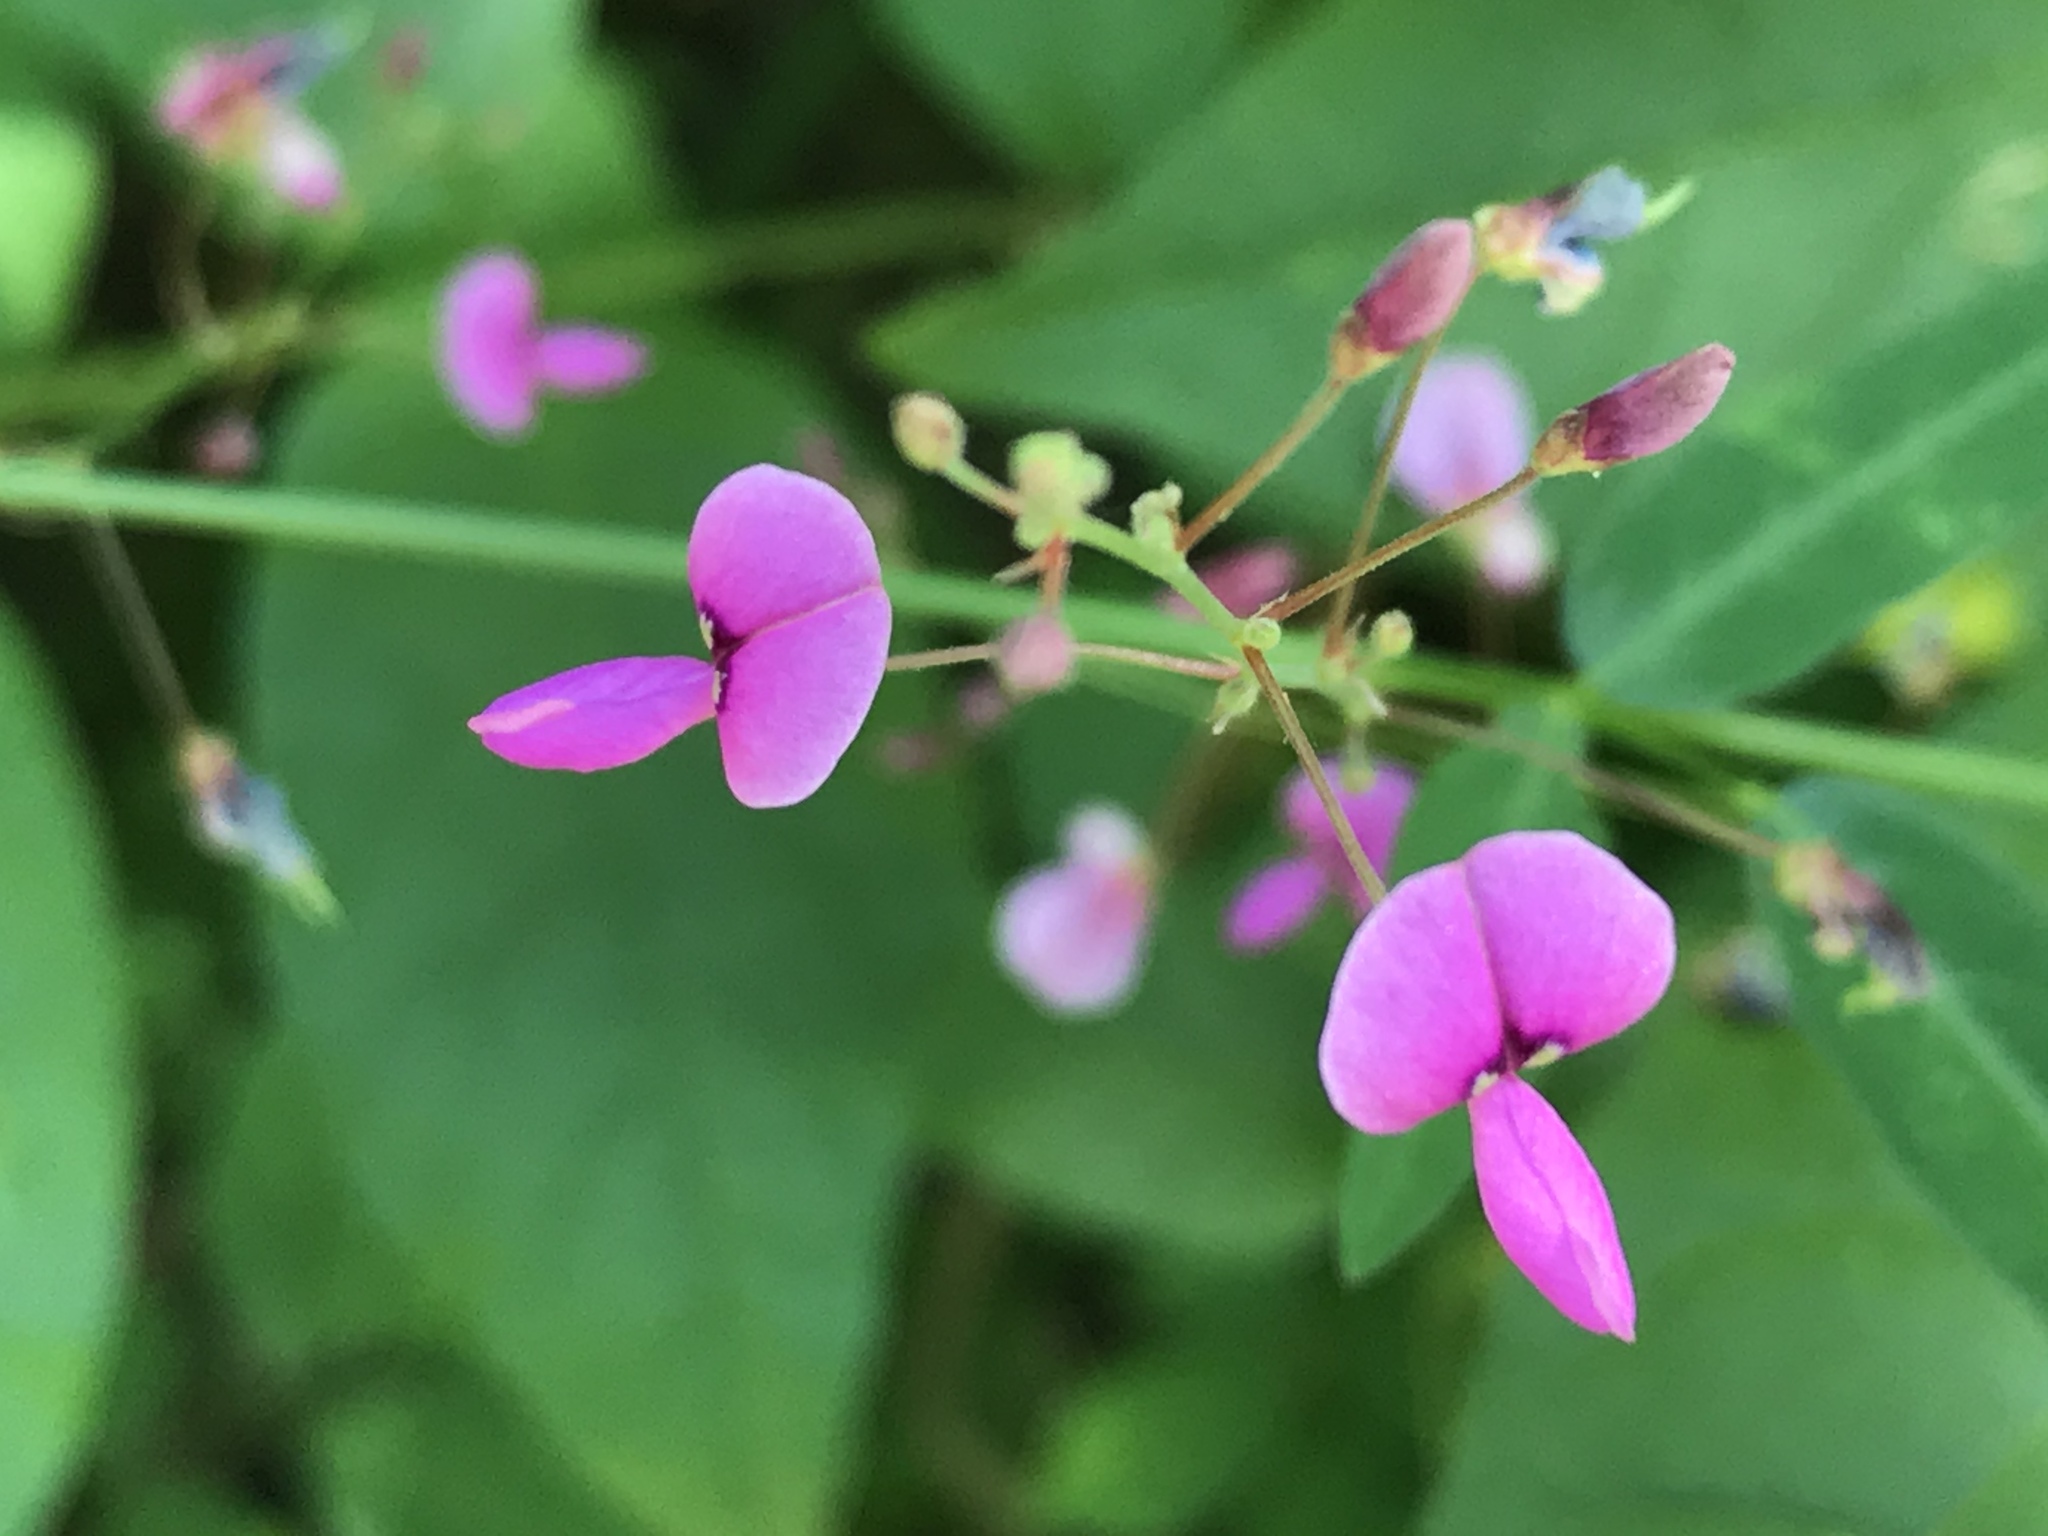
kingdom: Plantae
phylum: Tracheophyta
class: Magnoliopsida
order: Fabales
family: Fabaceae
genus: Desmodium
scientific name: Desmodium paniculatum
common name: Panicled tick-clover
